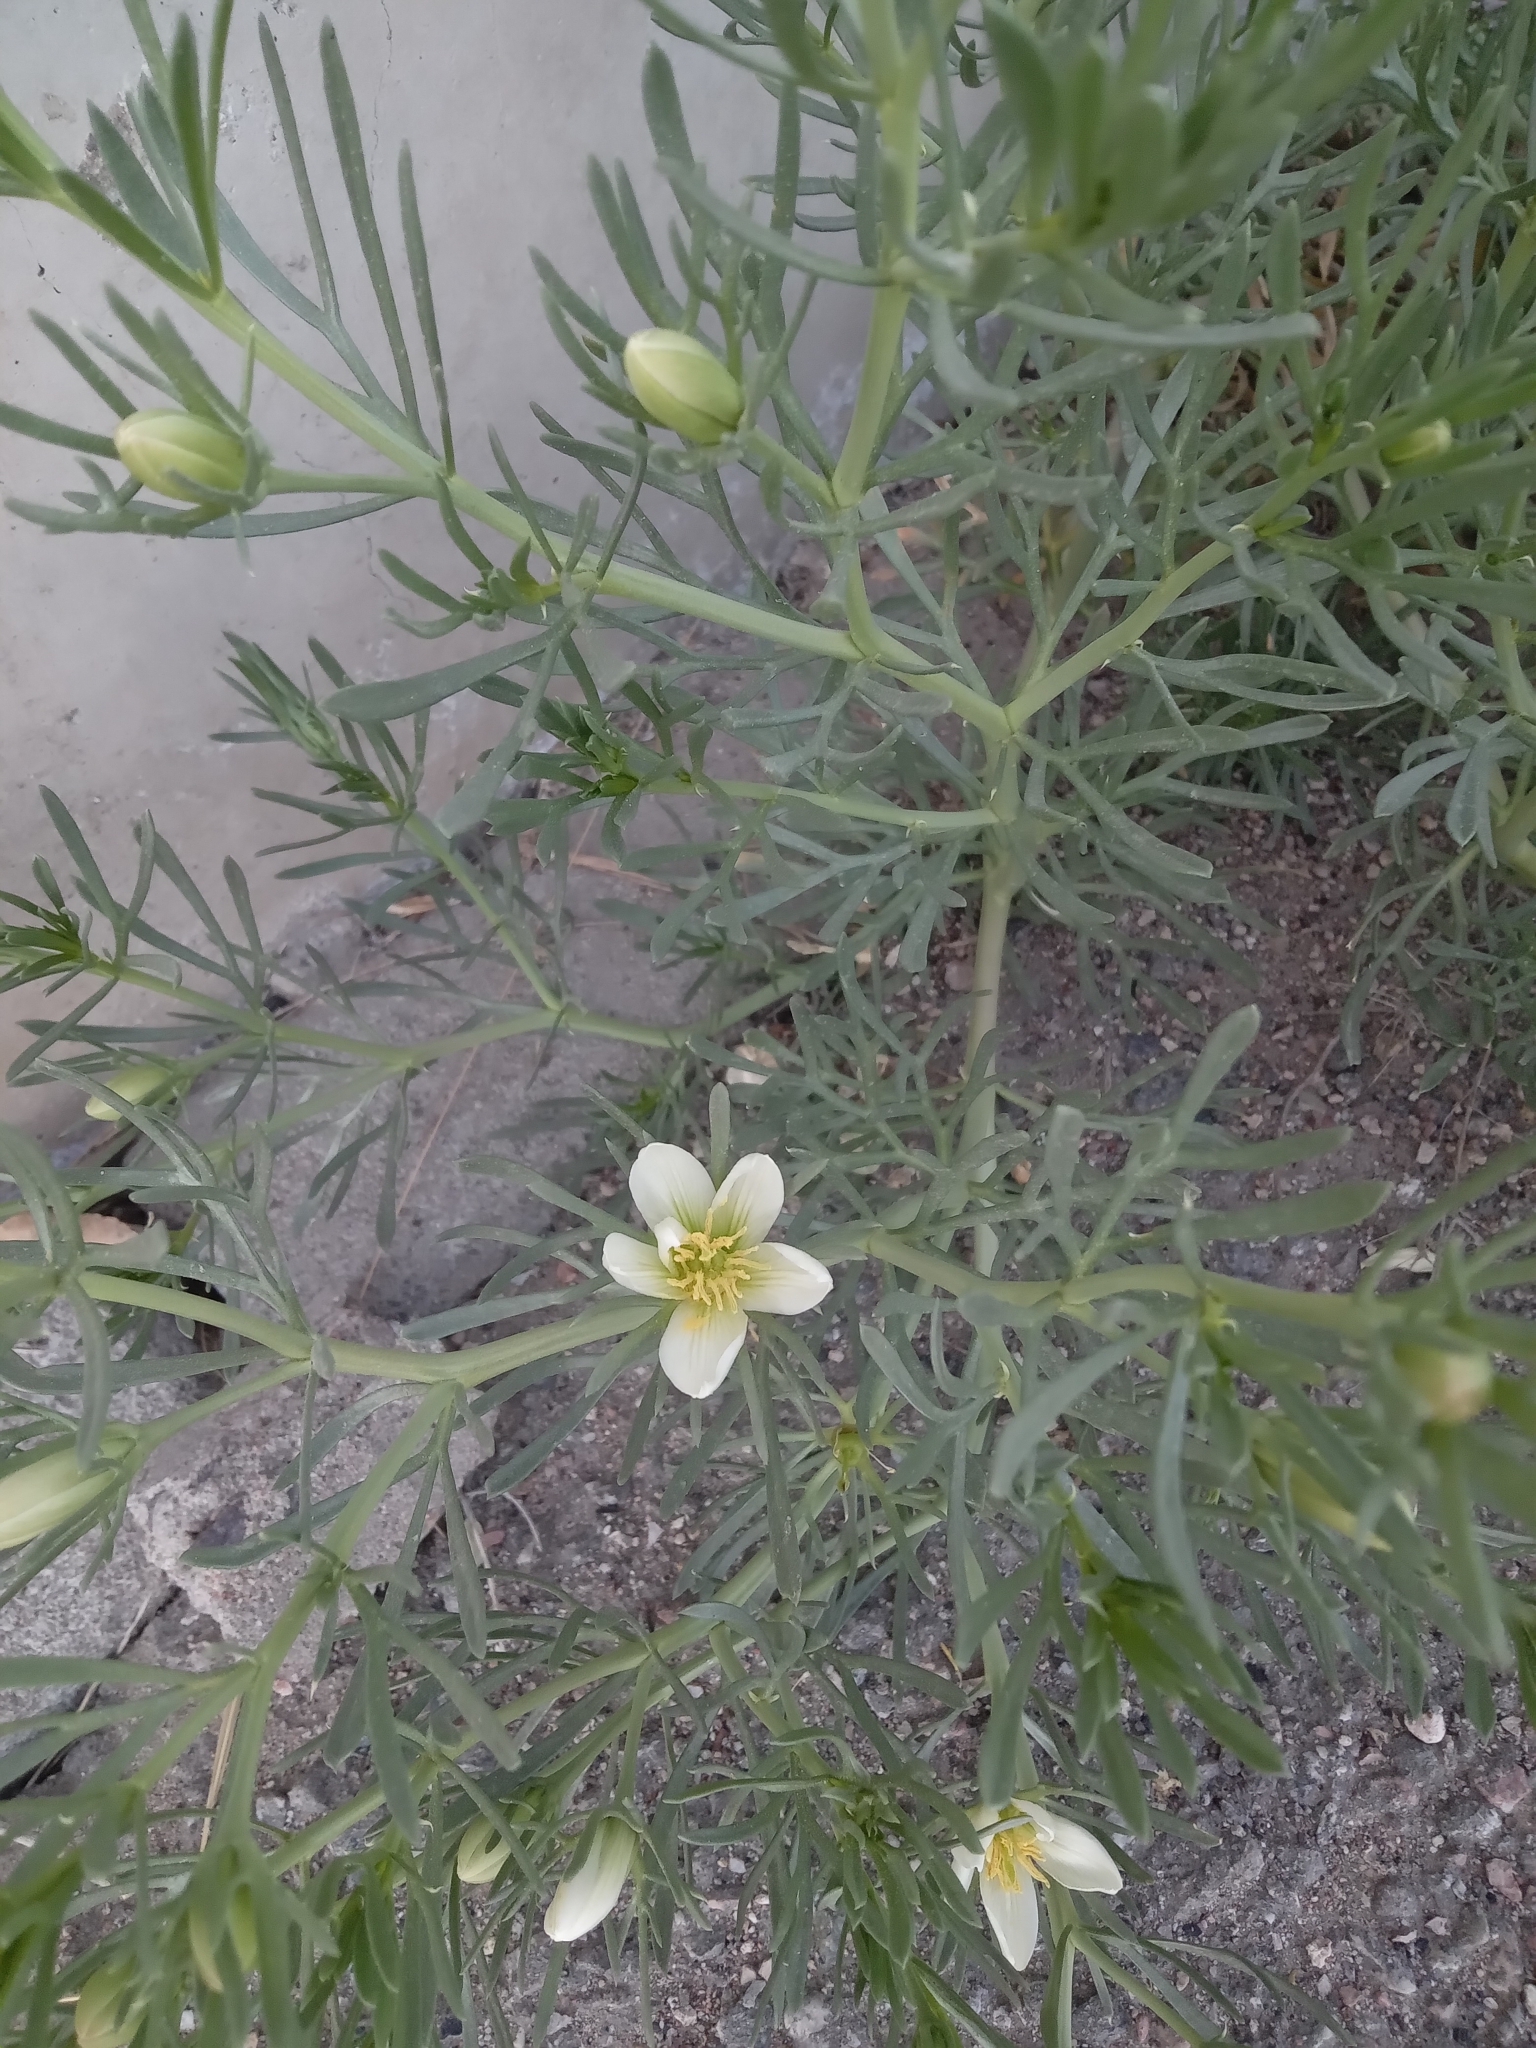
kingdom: Plantae
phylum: Tracheophyta
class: Magnoliopsida
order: Sapindales
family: Tetradiclidaceae
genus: Peganum
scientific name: Peganum harmala
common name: Harmal peganum
